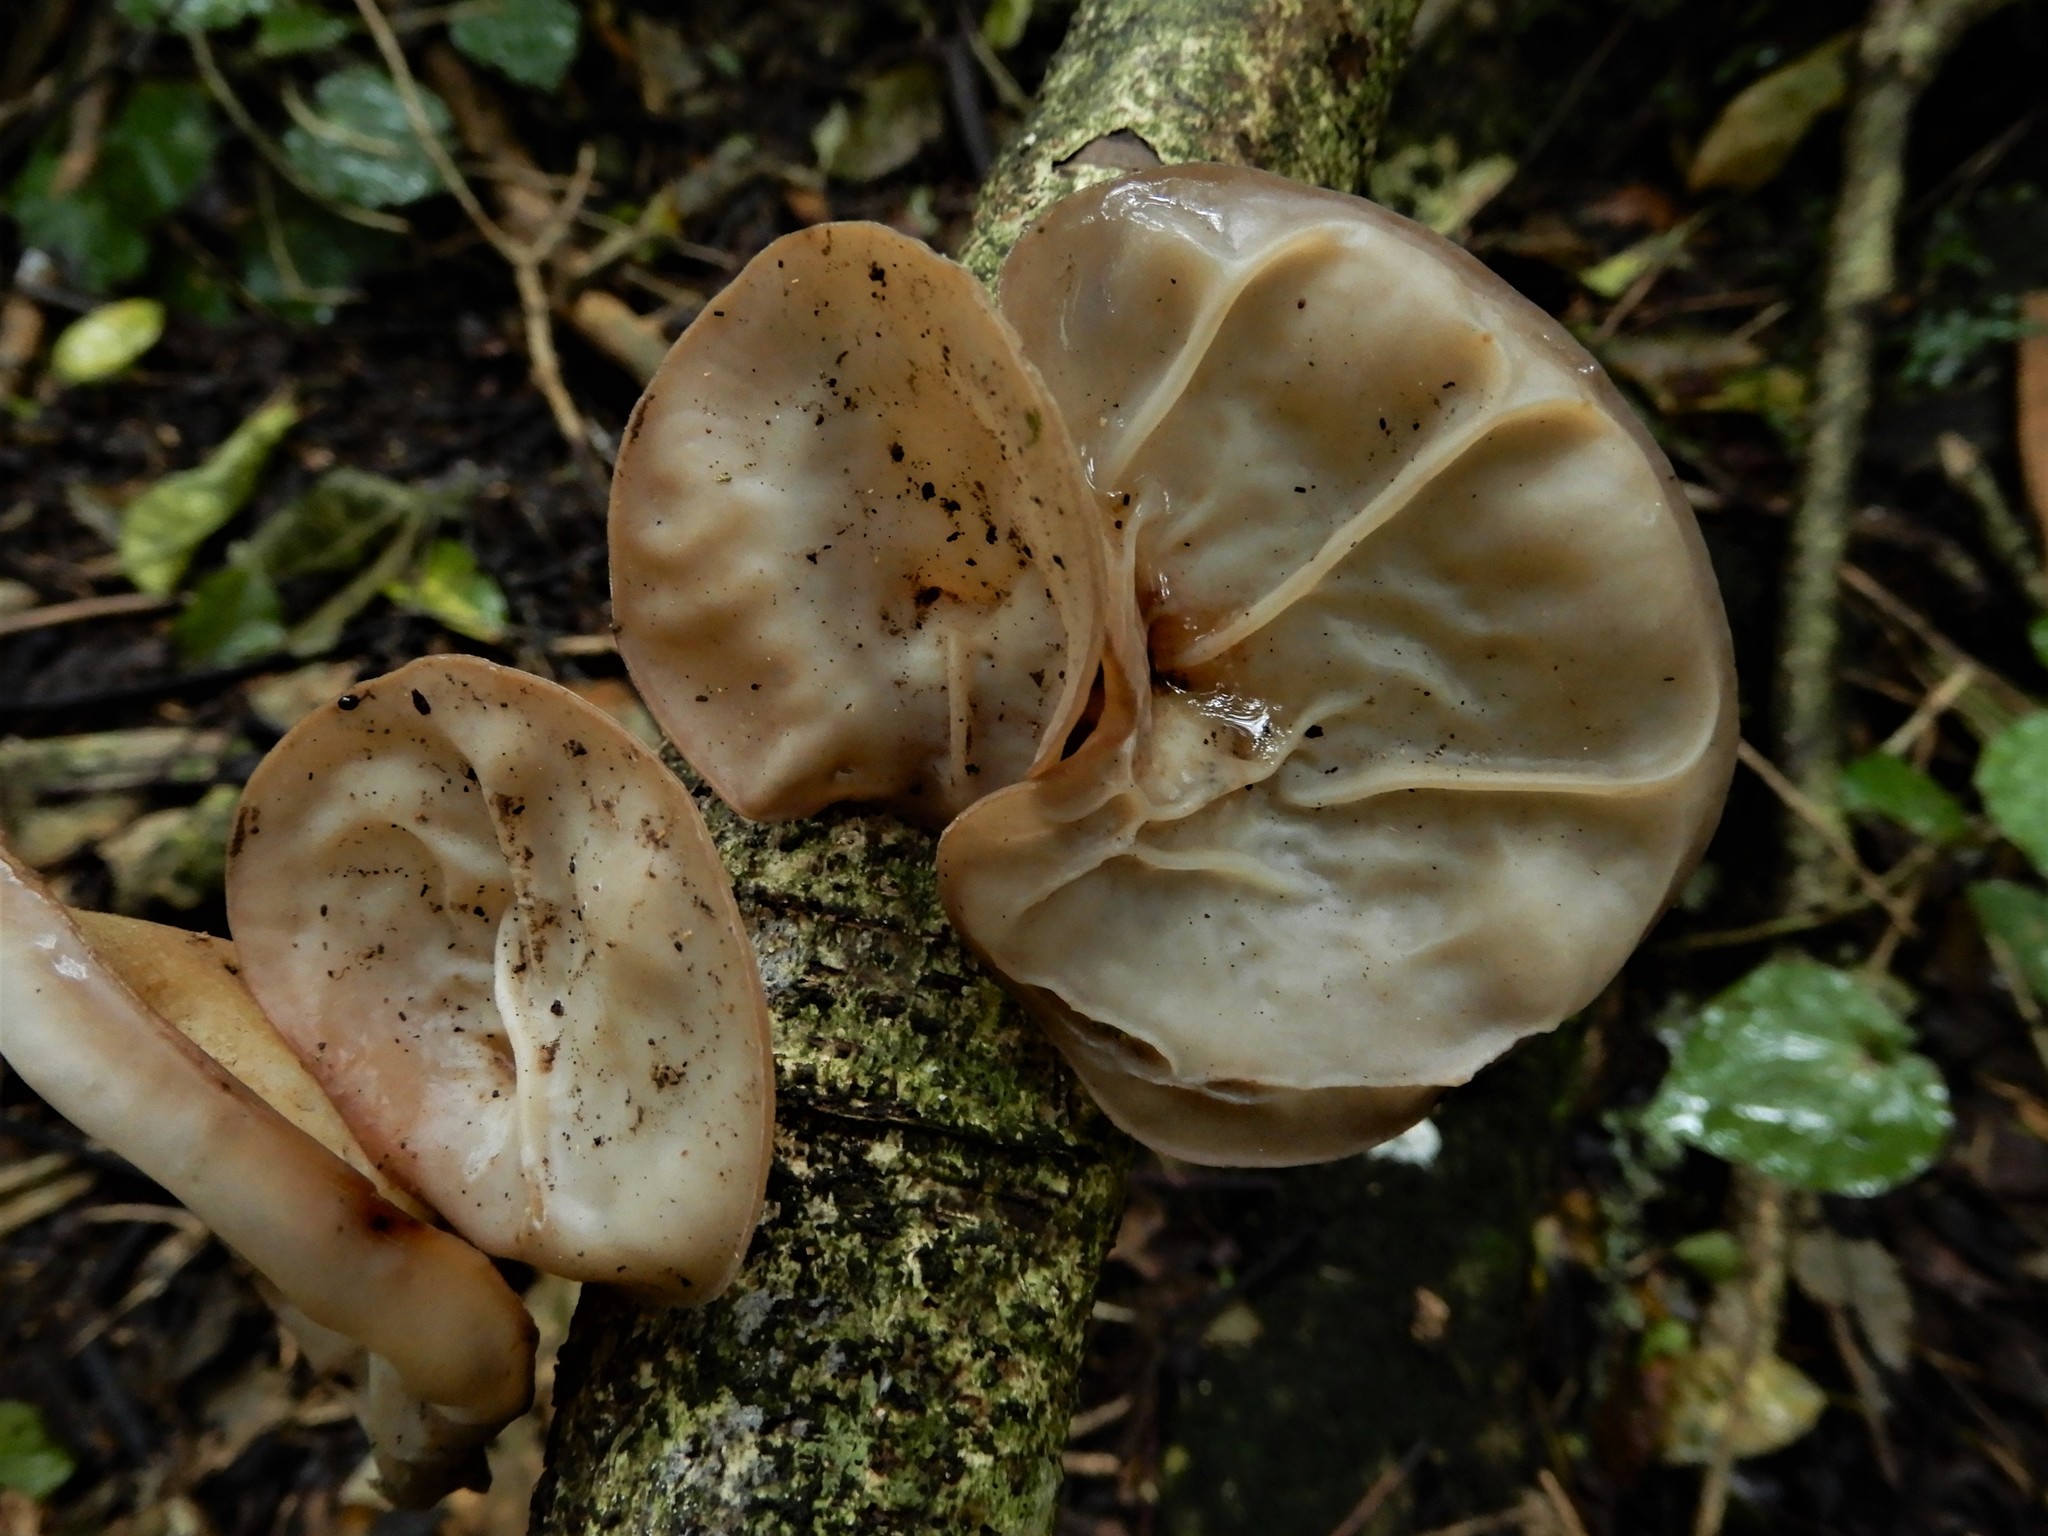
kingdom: Fungi
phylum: Basidiomycota
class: Agaricomycetes
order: Auriculariales
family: Auriculariaceae
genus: Auricularia
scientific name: Auricularia cornea
